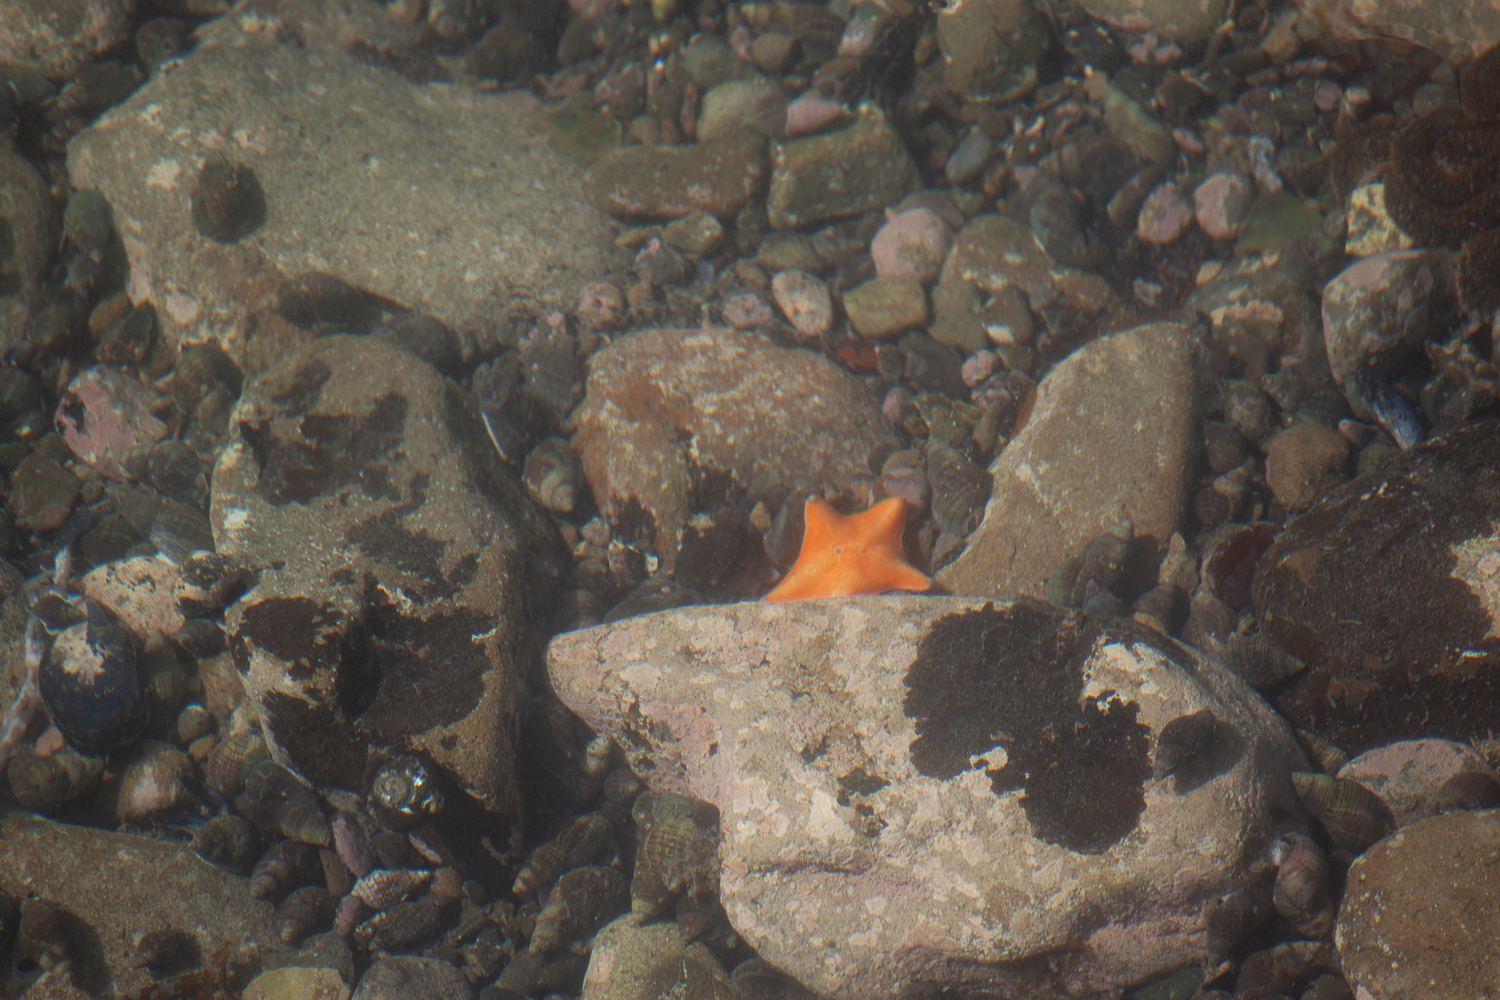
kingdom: Animalia
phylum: Echinodermata
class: Asteroidea
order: Valvatida
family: Asterinidae
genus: Patiriella
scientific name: Patiriella regularis
